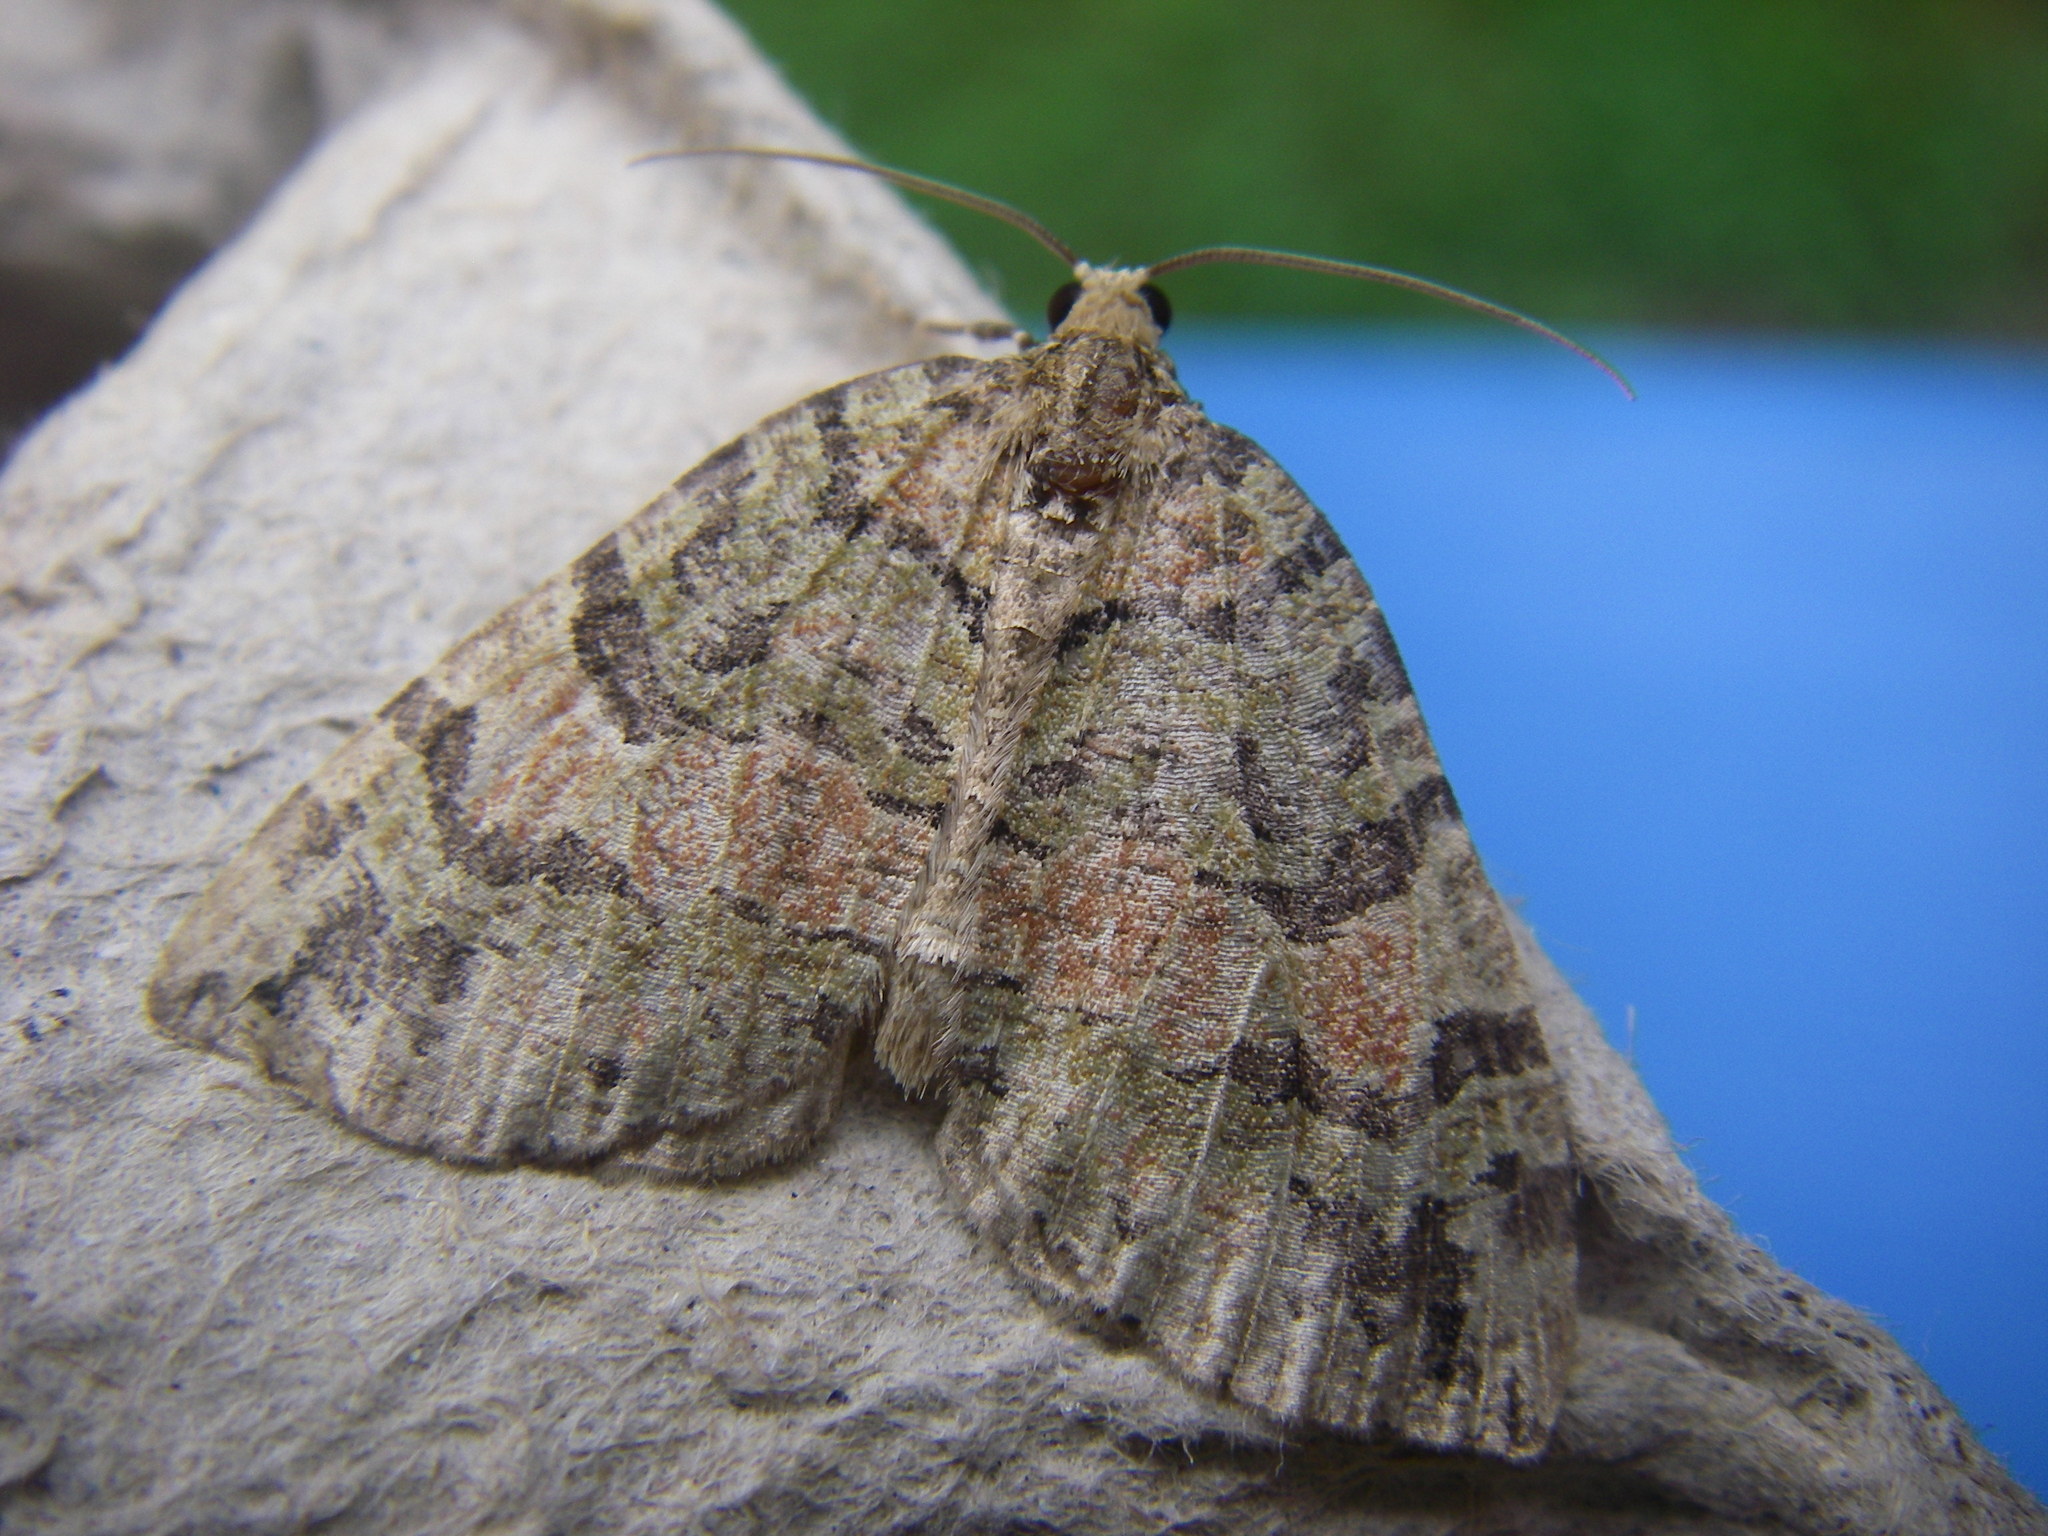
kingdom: Animalia
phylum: Arthropoda
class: Insecta
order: Lepidoptera
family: Geometridae
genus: Hydriomena
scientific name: Hydriomena furcata
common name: July highflyer
